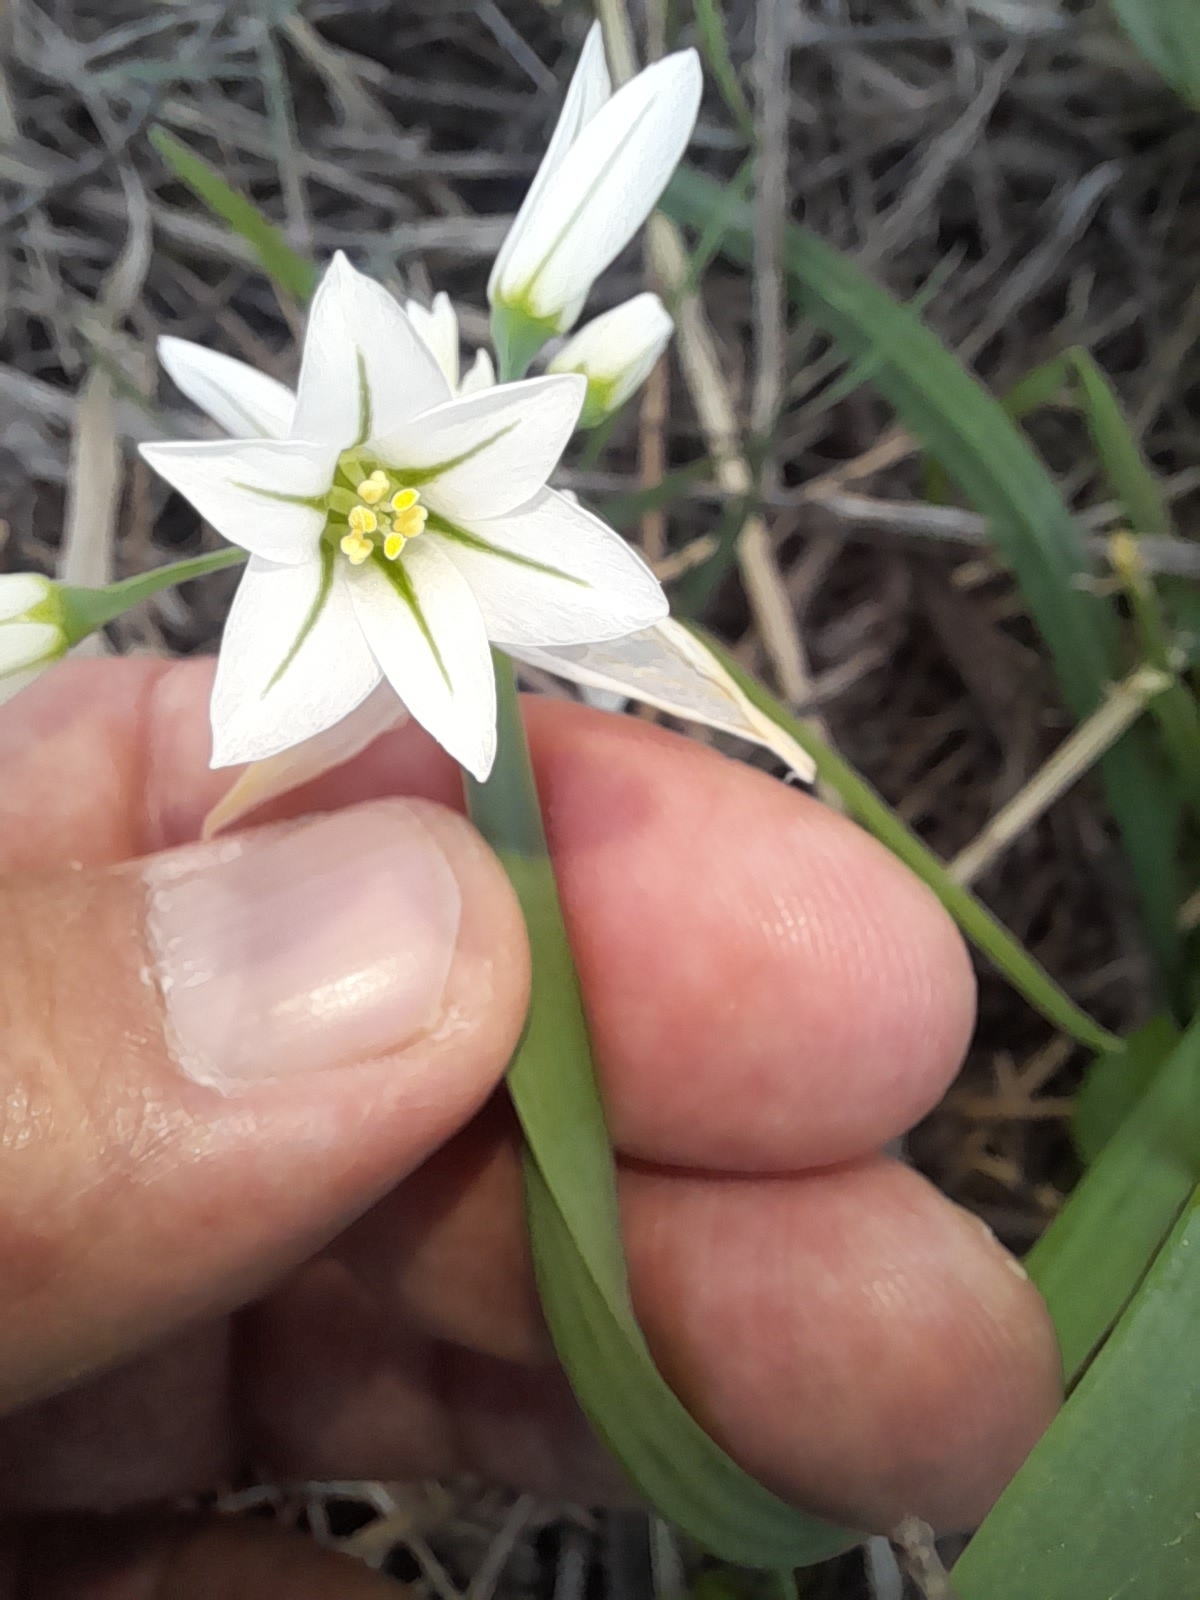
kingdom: Plantae
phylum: Tracheophyta
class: Liliopsida
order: Asparagales
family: Amaryllidaceae
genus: Allium
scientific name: Allium triquetrum
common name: Three-cornered garlic
